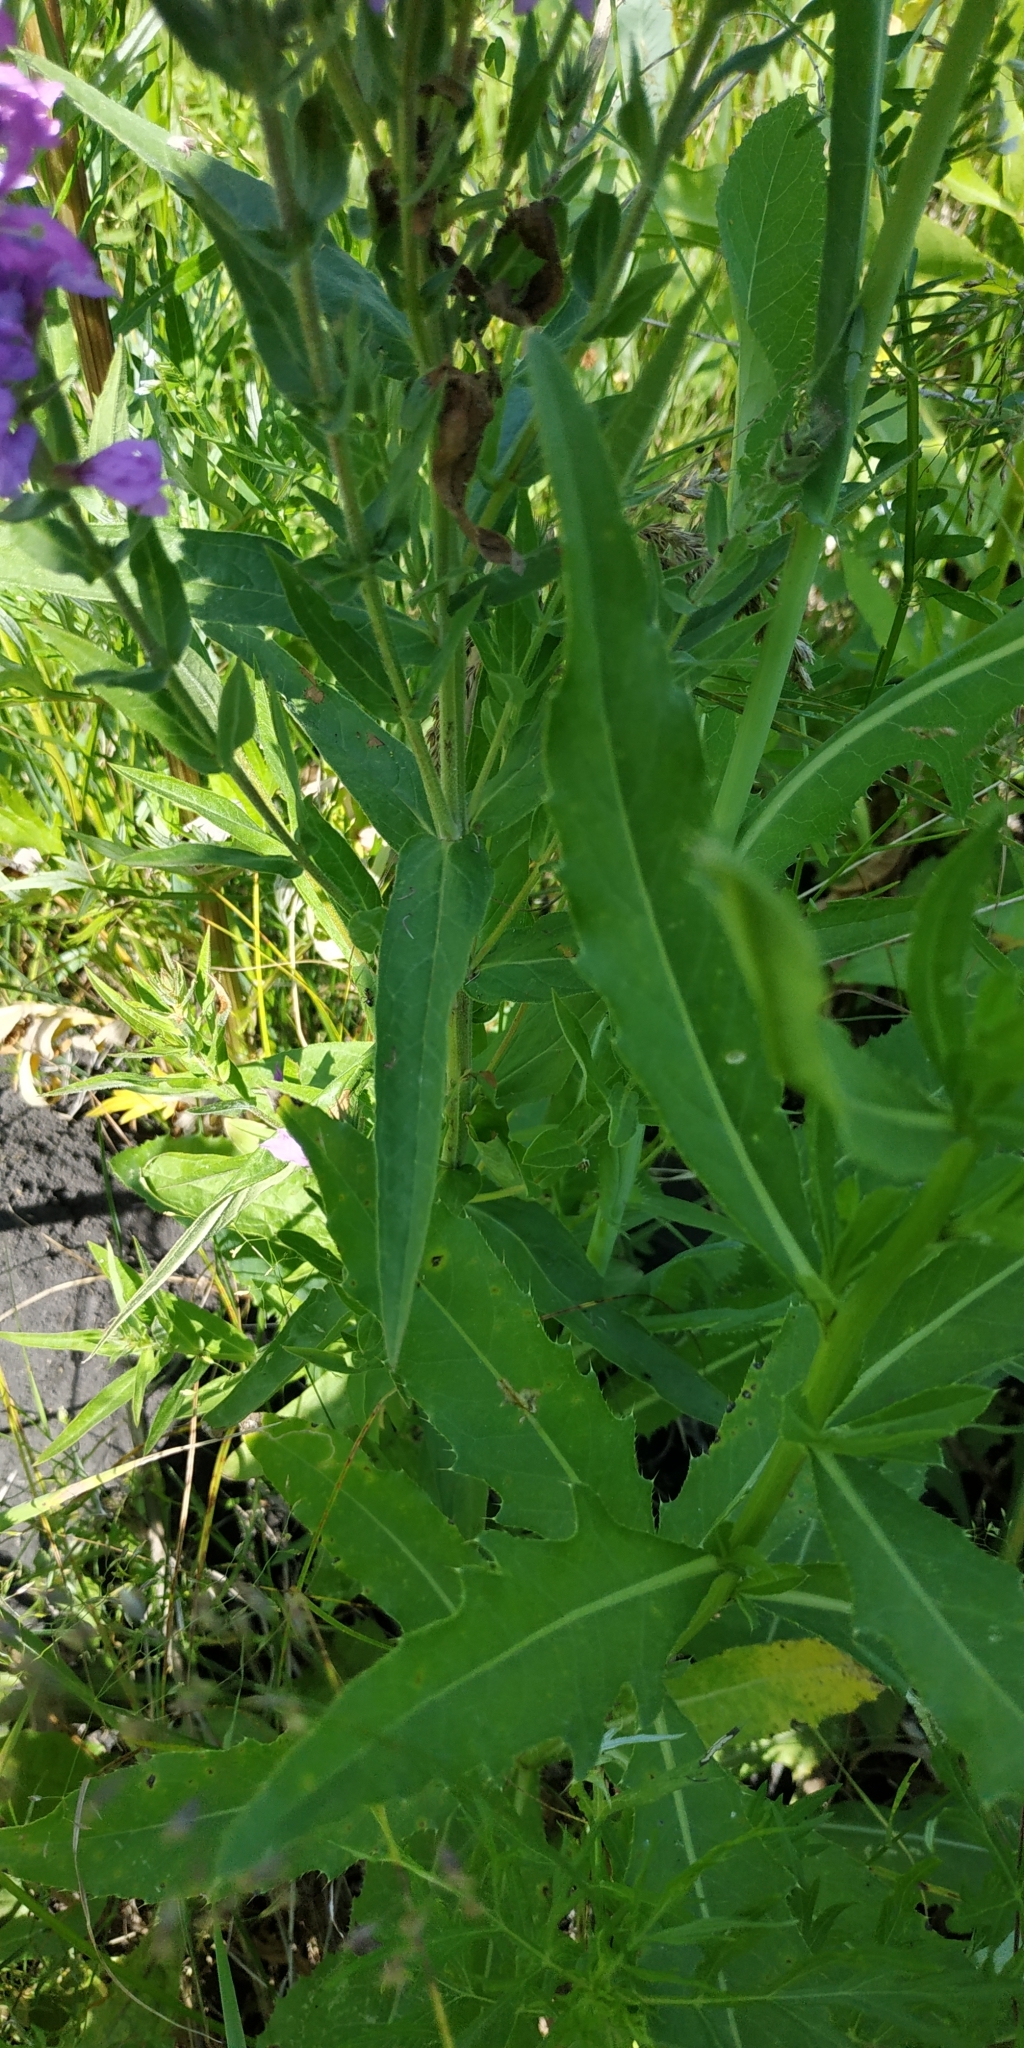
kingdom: Plantae
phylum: Tracheophyta
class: Magnoliopsida
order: Myrtales
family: Lythraceae
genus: Lythrum
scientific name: Lythrum salicaria
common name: Purple loosestrife
